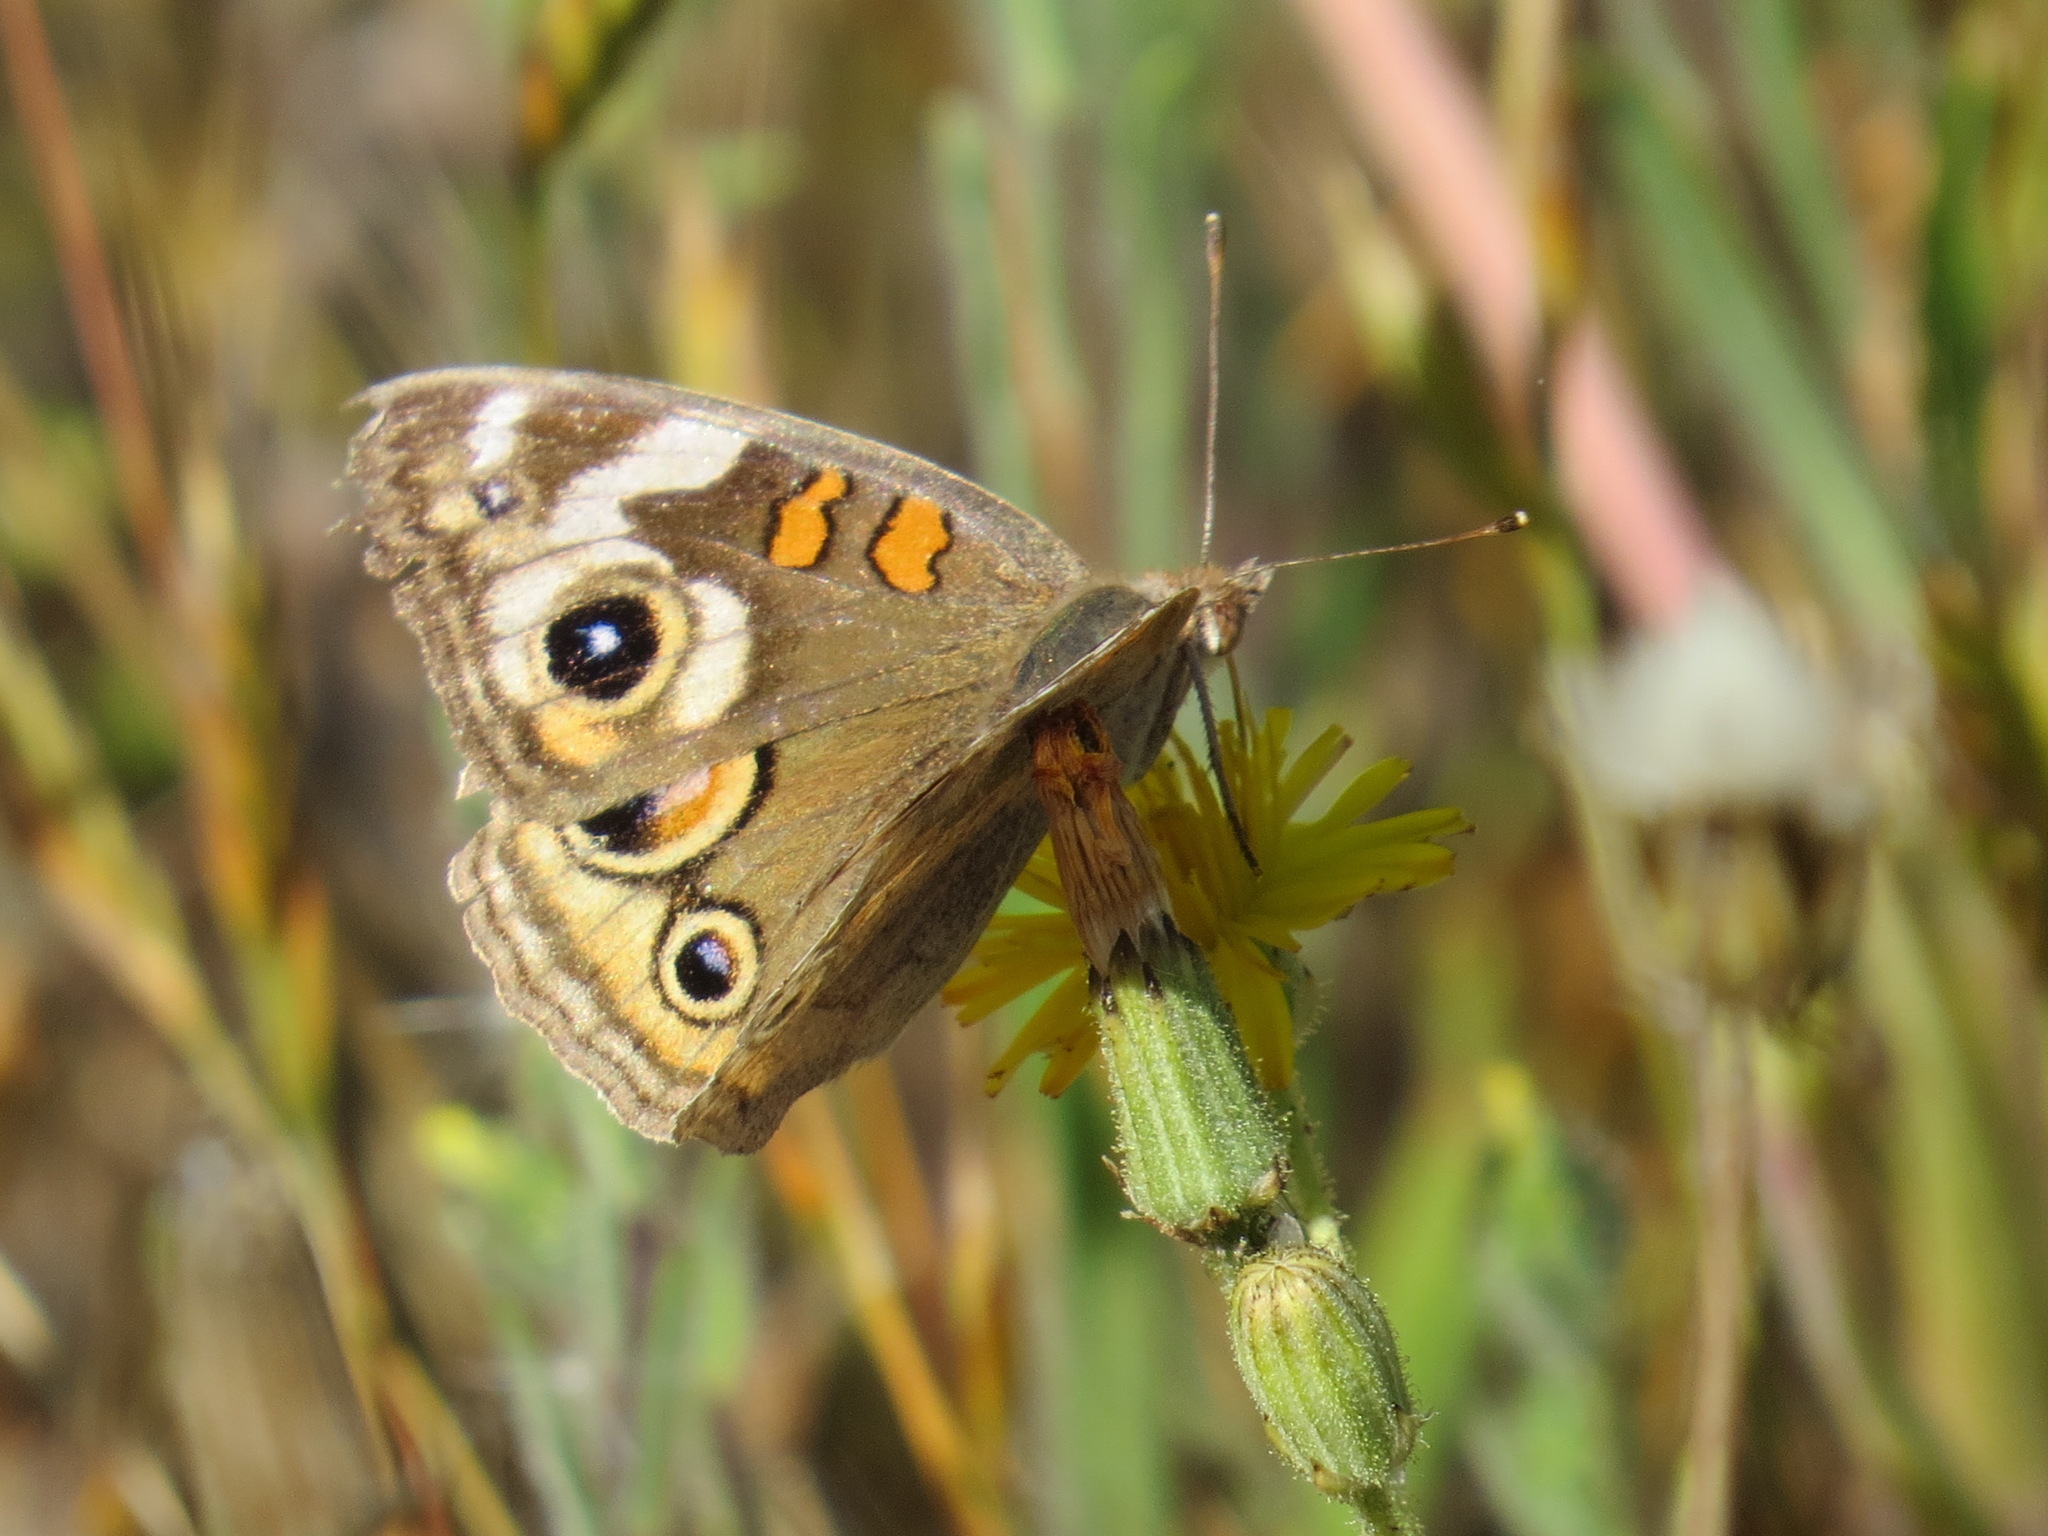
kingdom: Animalia
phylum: Arthropoda
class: Insecta
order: Lepidoptera
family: Nymphalidae
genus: Junonia
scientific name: Junonia grisea
